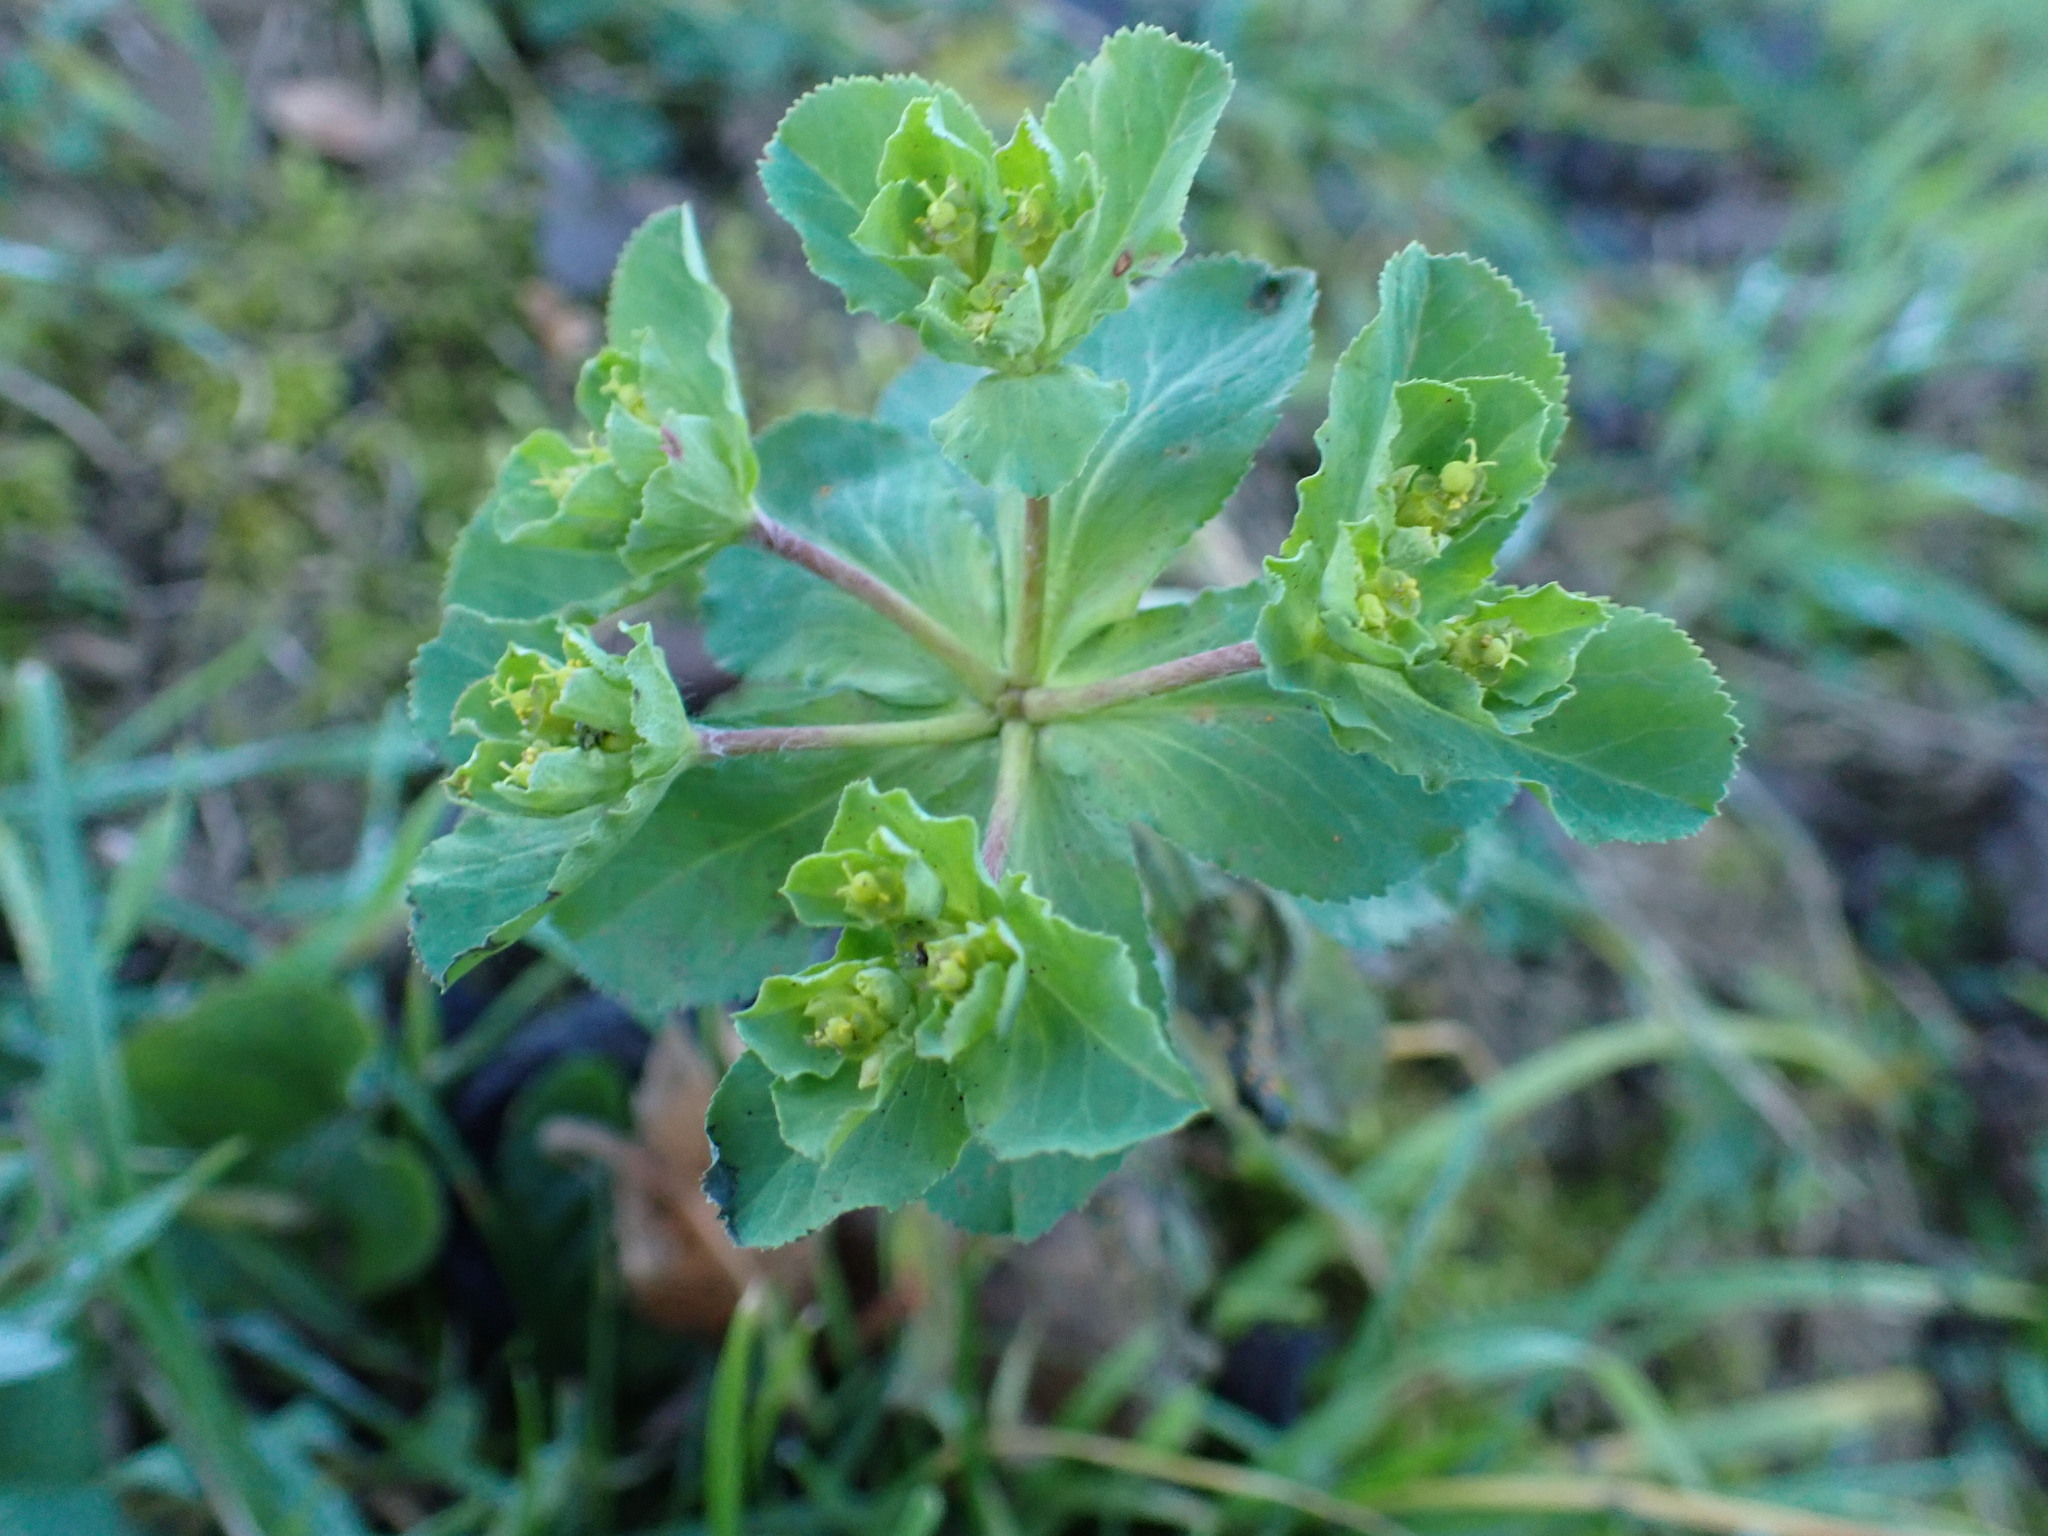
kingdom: Plantae
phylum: Tracheophyta
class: Magnoliopsida
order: Malpighiales
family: Euphorbiaceae
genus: Euphorbia
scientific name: Euphorbia helioscopia
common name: Sun spurge
